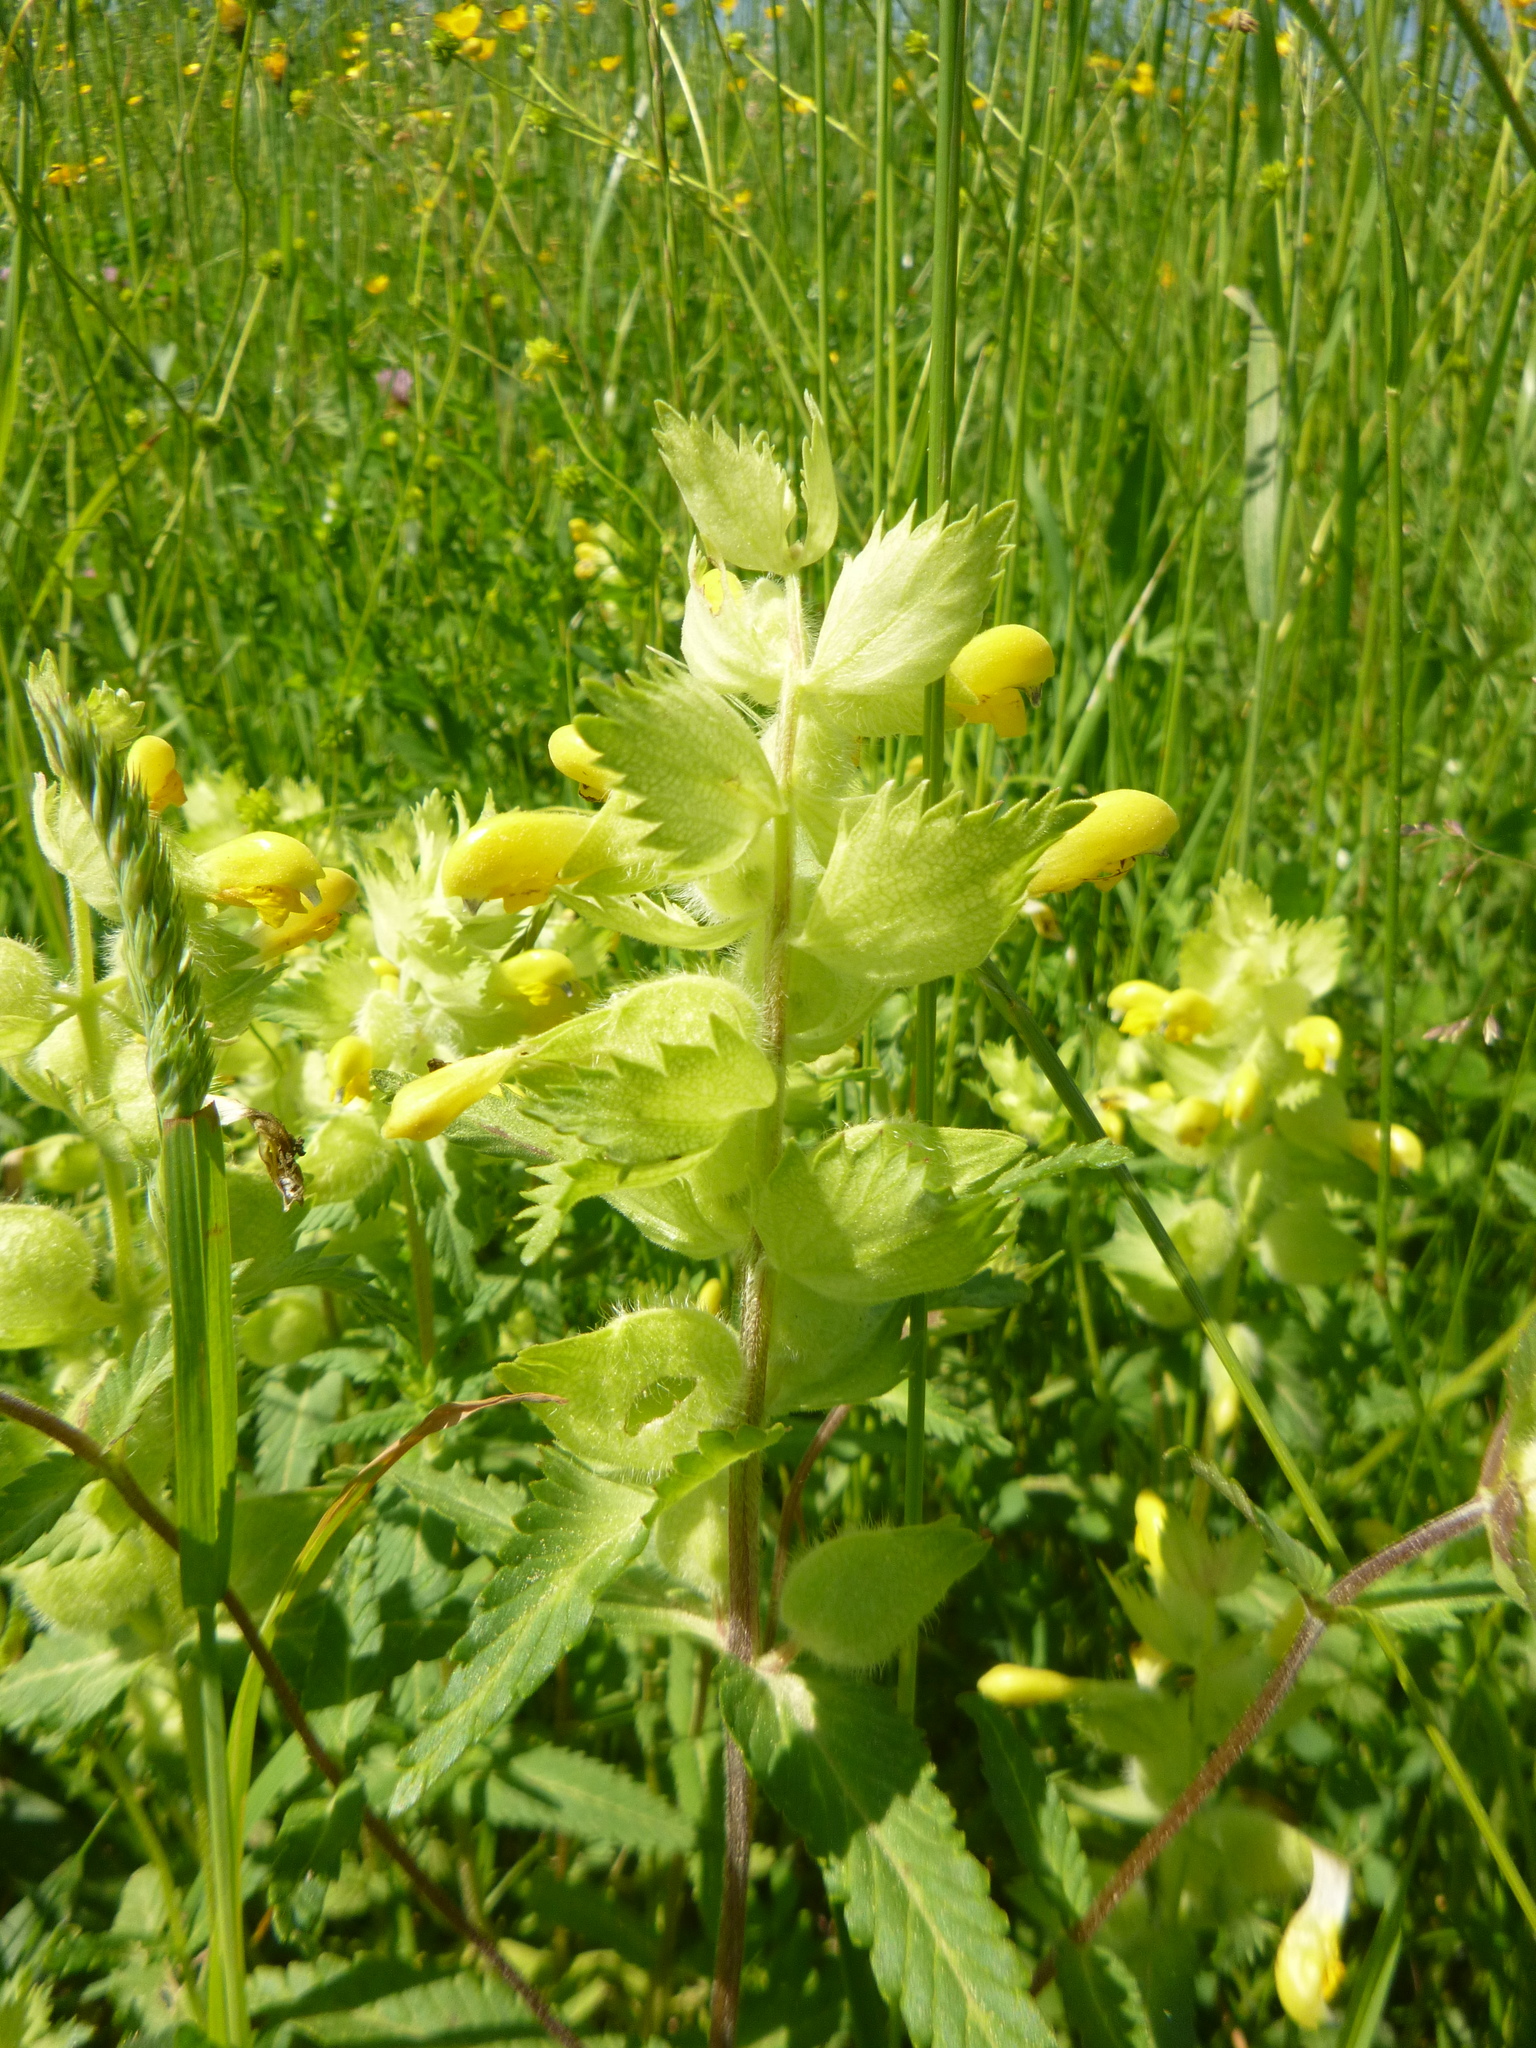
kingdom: Plantae
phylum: Tracheophyta
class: Magnoliopsida
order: Lamiales
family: Orobanchaceae
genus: Rhinanthus
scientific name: Rhinanthus alectorolophus
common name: Greater yellow-rattle
